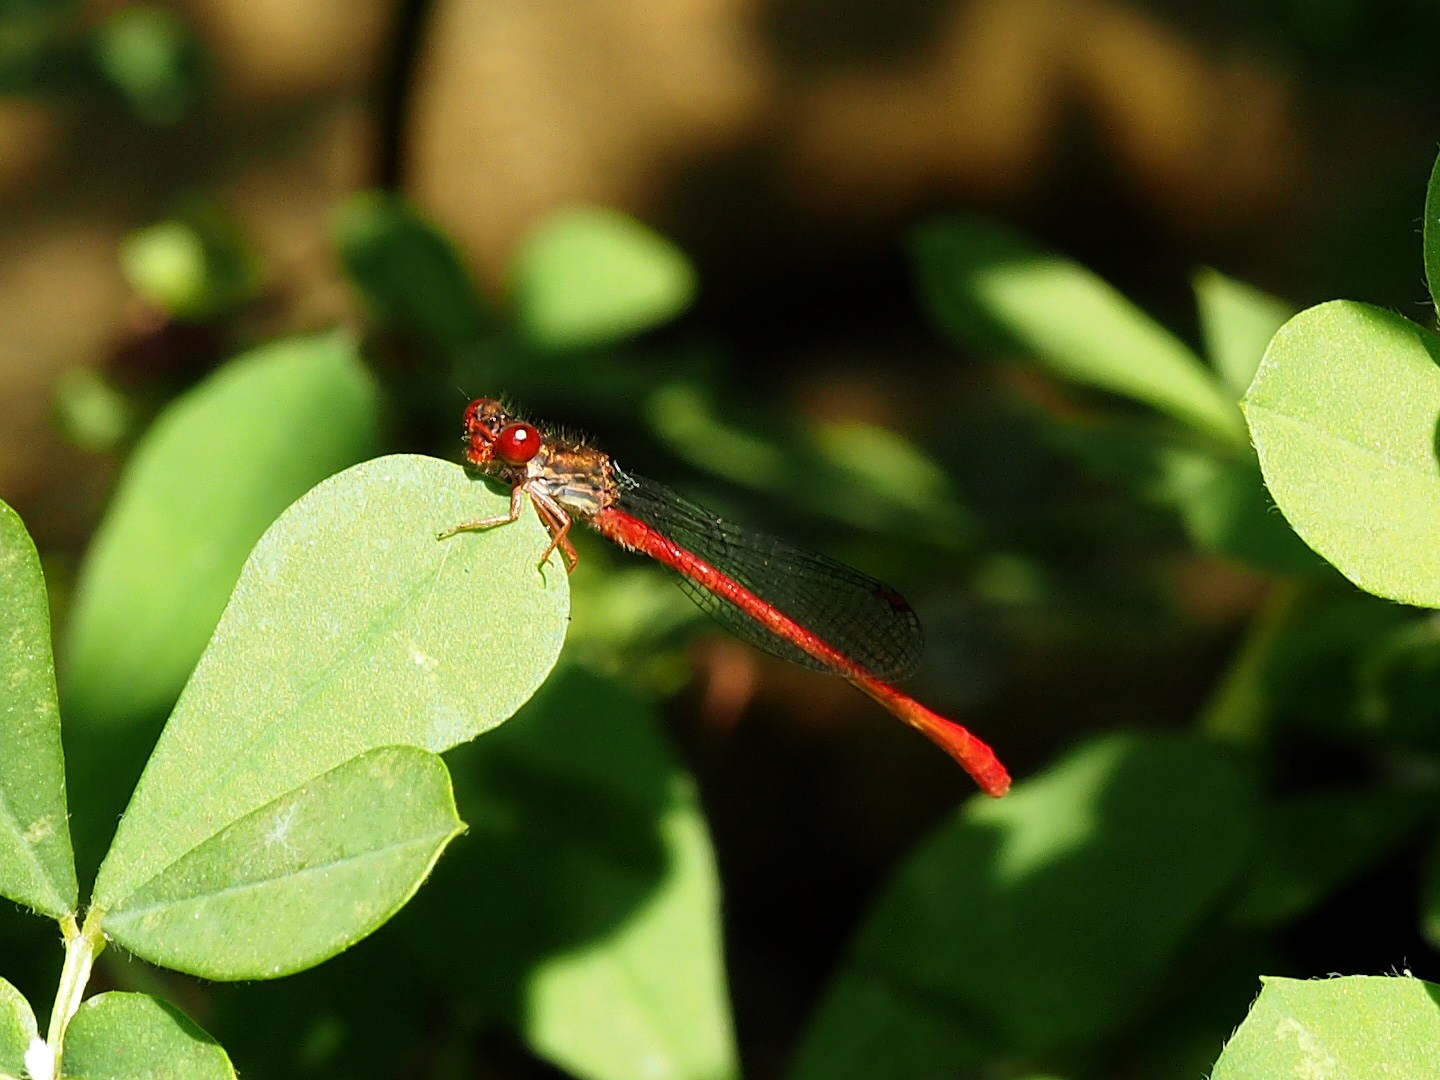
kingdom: Animalia
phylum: Arthropoda
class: Insecta
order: Odonata
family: Coenagrionidae
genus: Ceriagrion
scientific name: Ceriagrion tenellum
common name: Small red damselfly
